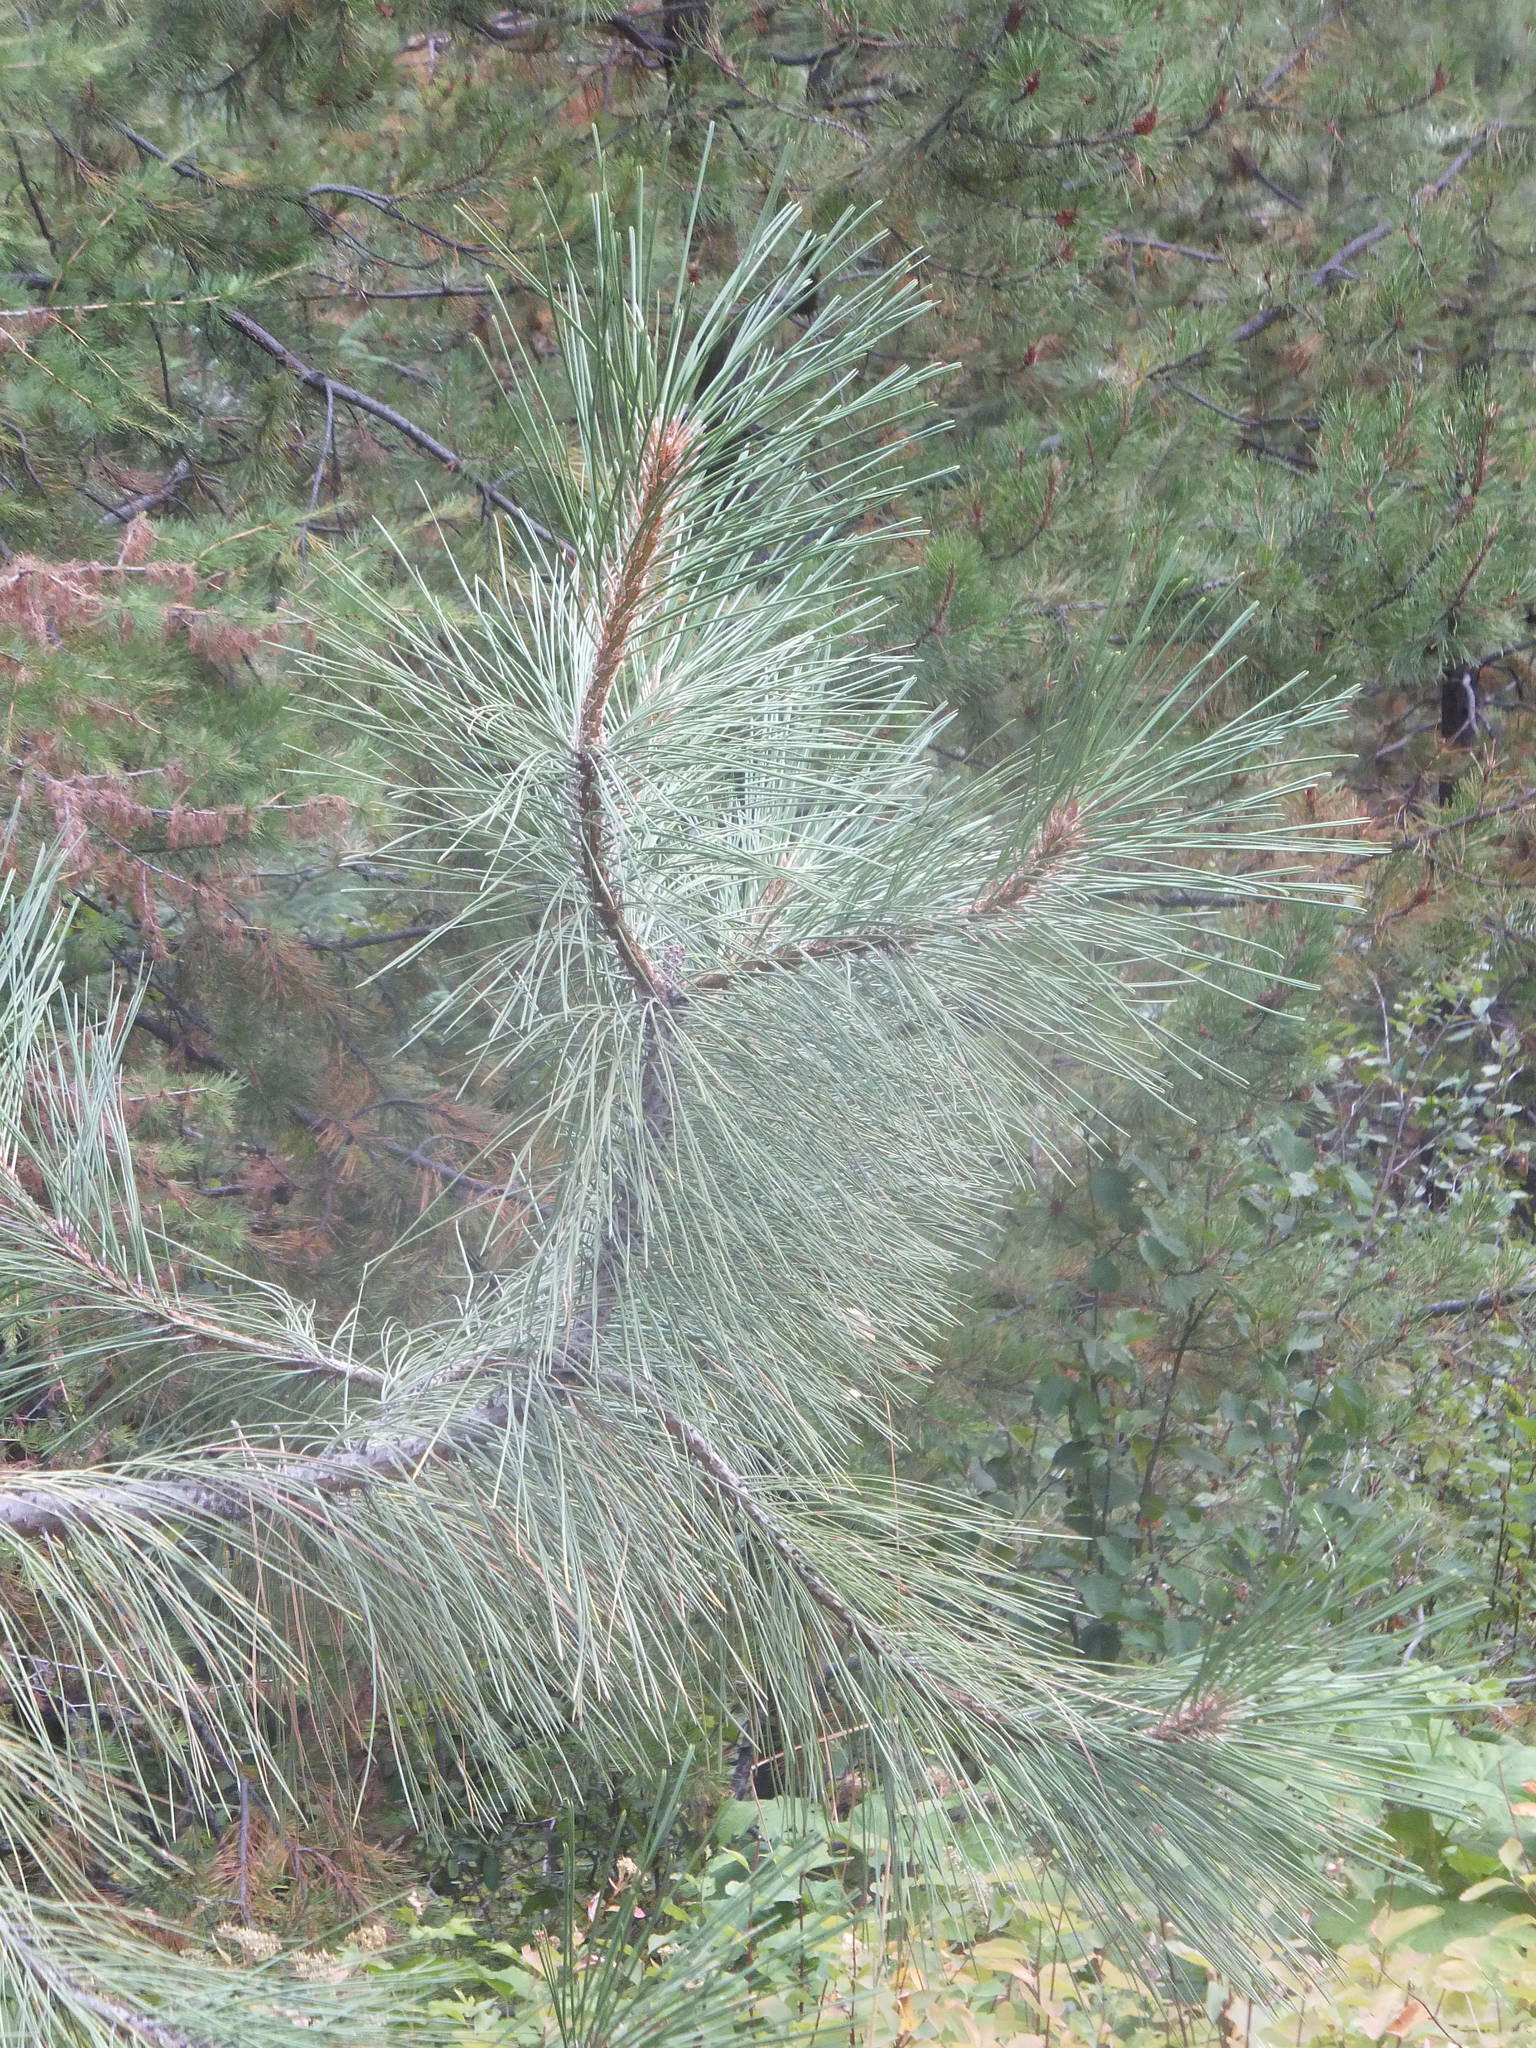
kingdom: Plantae
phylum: Tracheophyta
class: Pinopsida
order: Pinales
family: Pinaceae
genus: Pinus
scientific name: Pinus ponderosa
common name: Western yellow-pine
